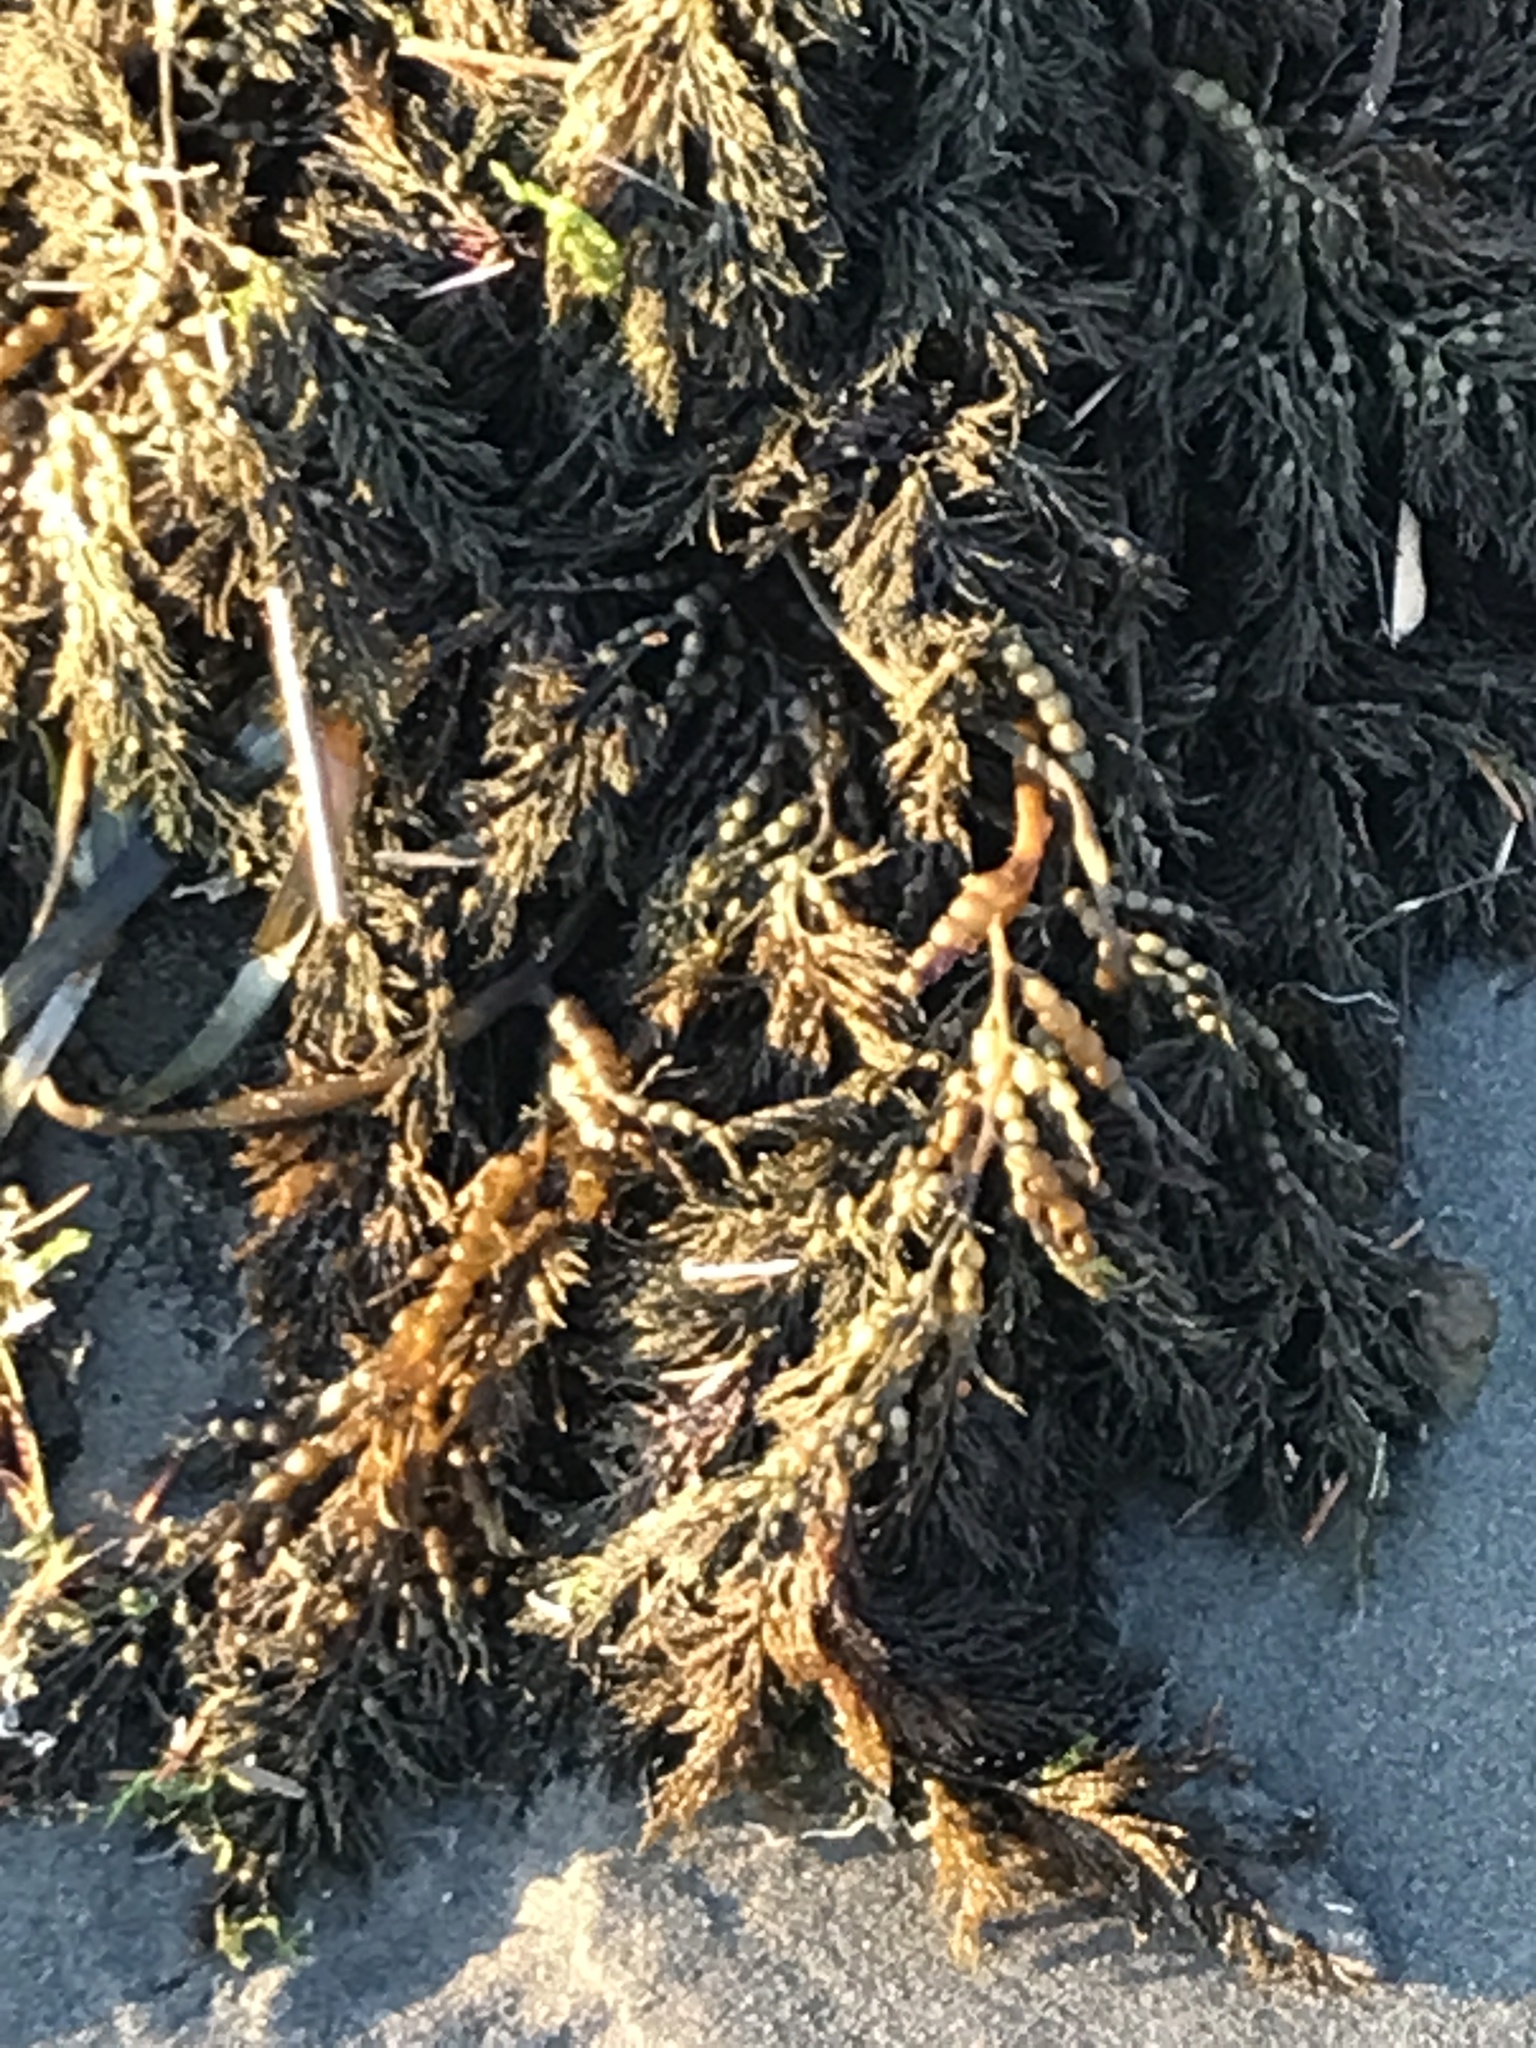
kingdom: Chromista
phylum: Ochrophyta
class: Phaeophyceae
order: Fucales
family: Sargassaceae
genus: Stephanocystis
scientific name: Stephanocystis
